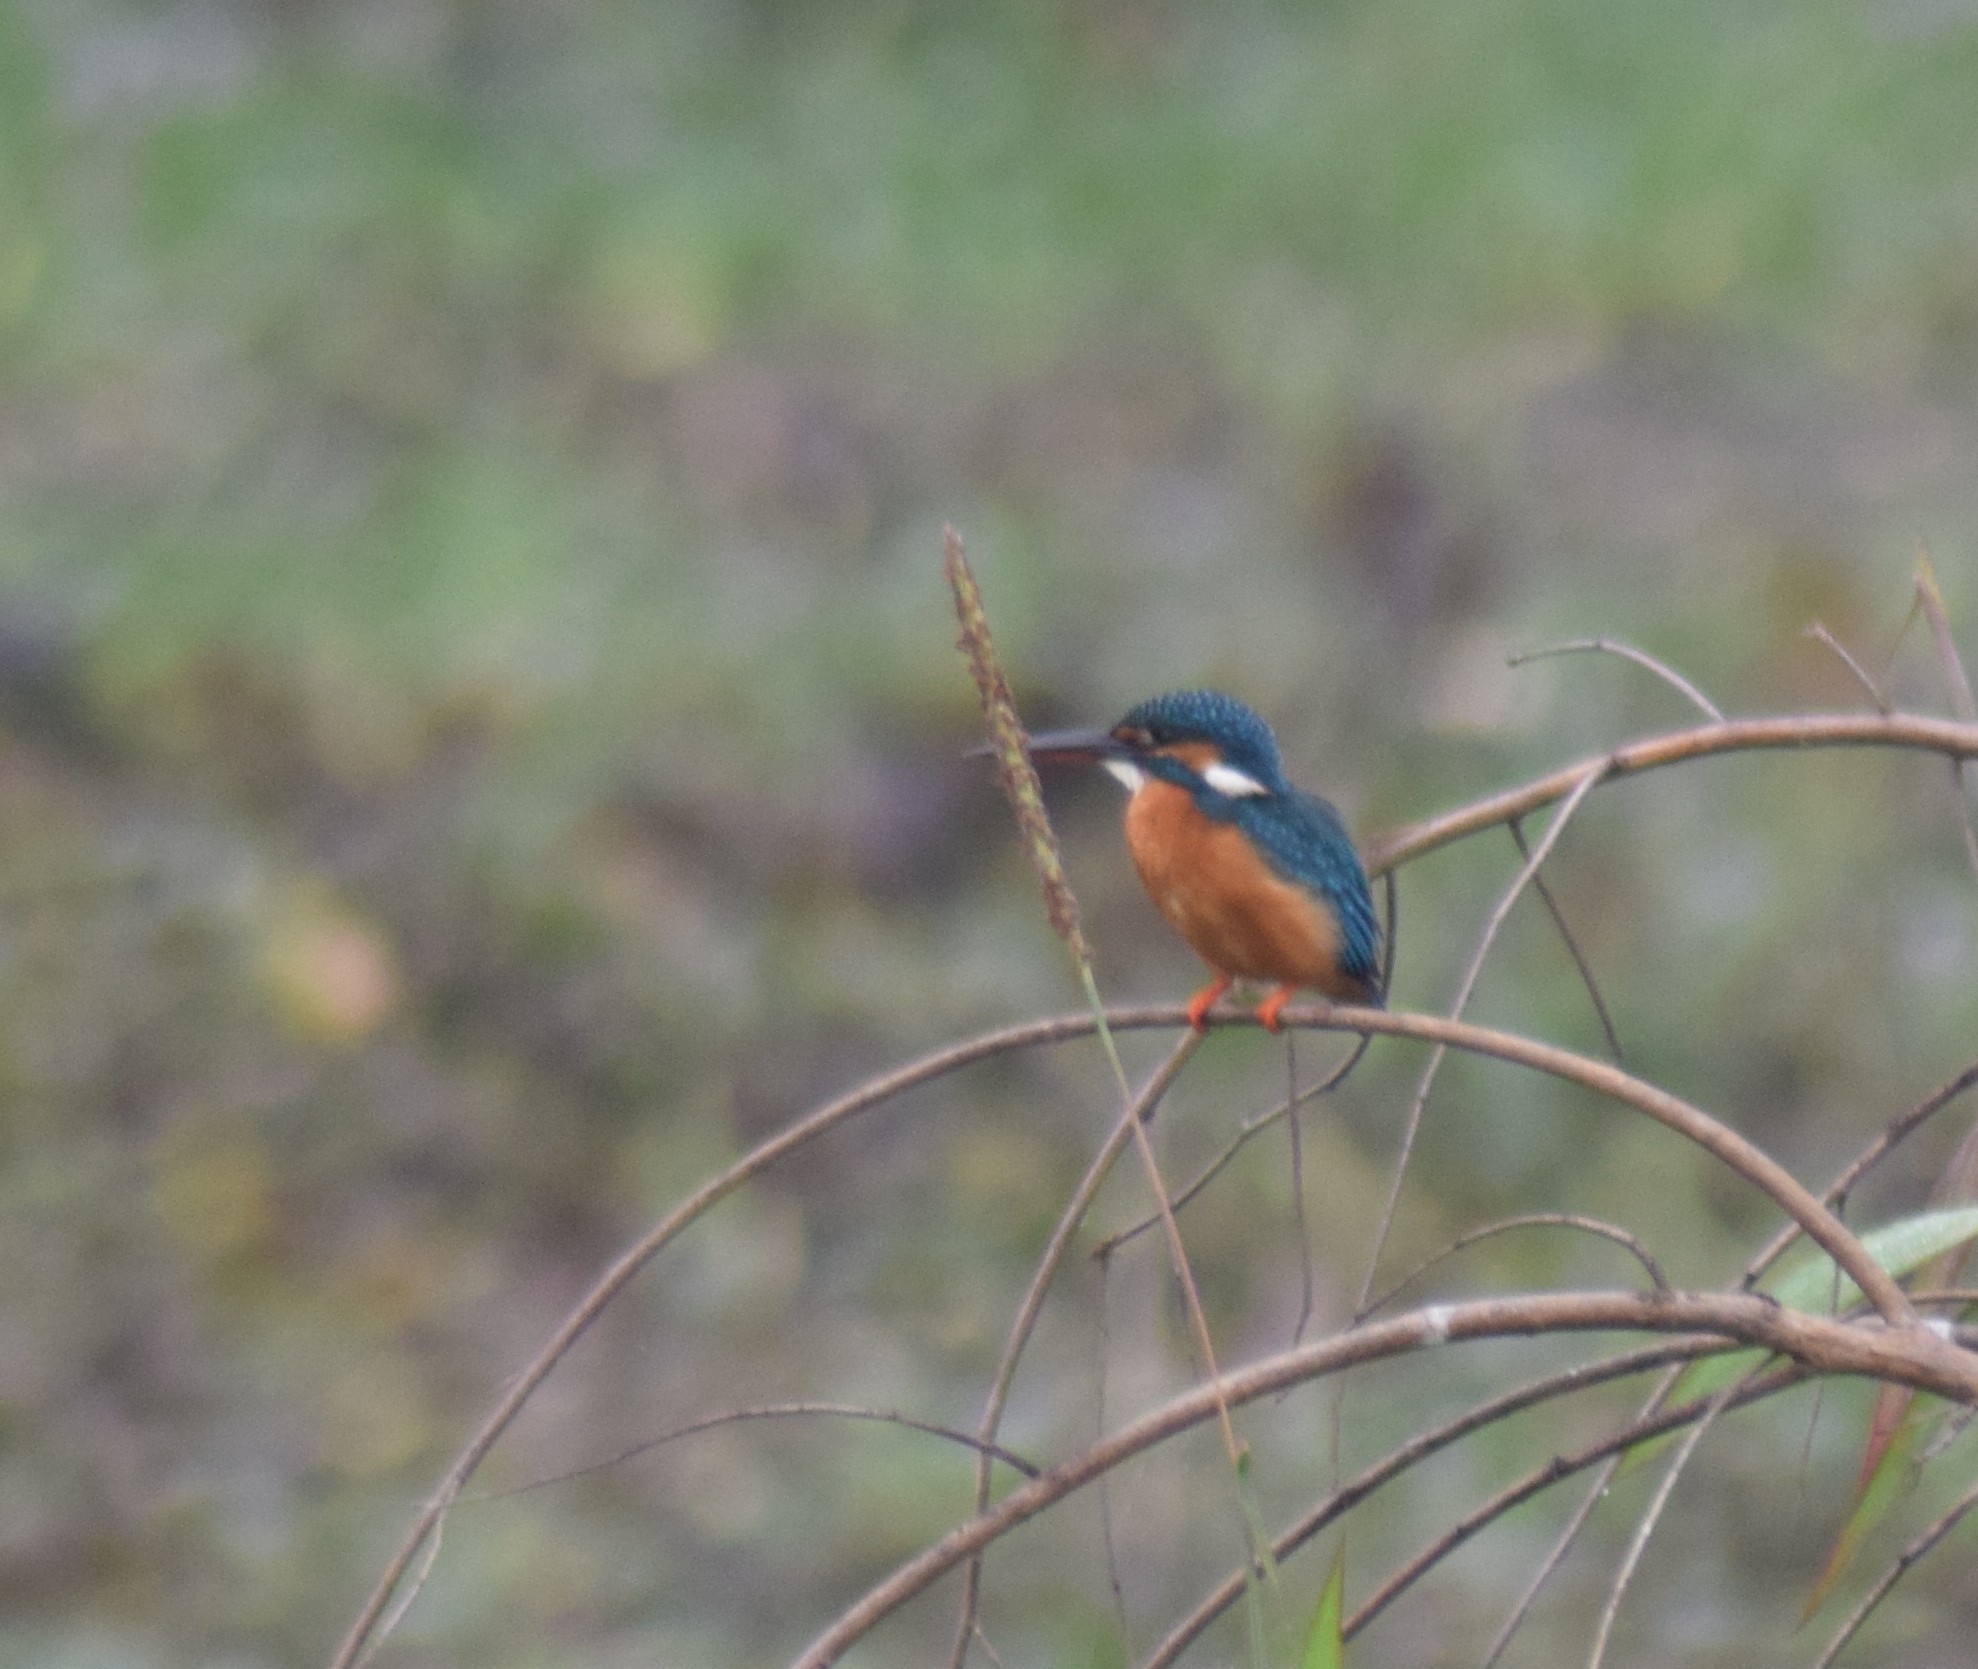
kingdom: Animalia
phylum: Chordata
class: Aves
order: Coraciiformes
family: Alcedinidae
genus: Alcedo
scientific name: Alcedo atthis
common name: Common kingfisher
